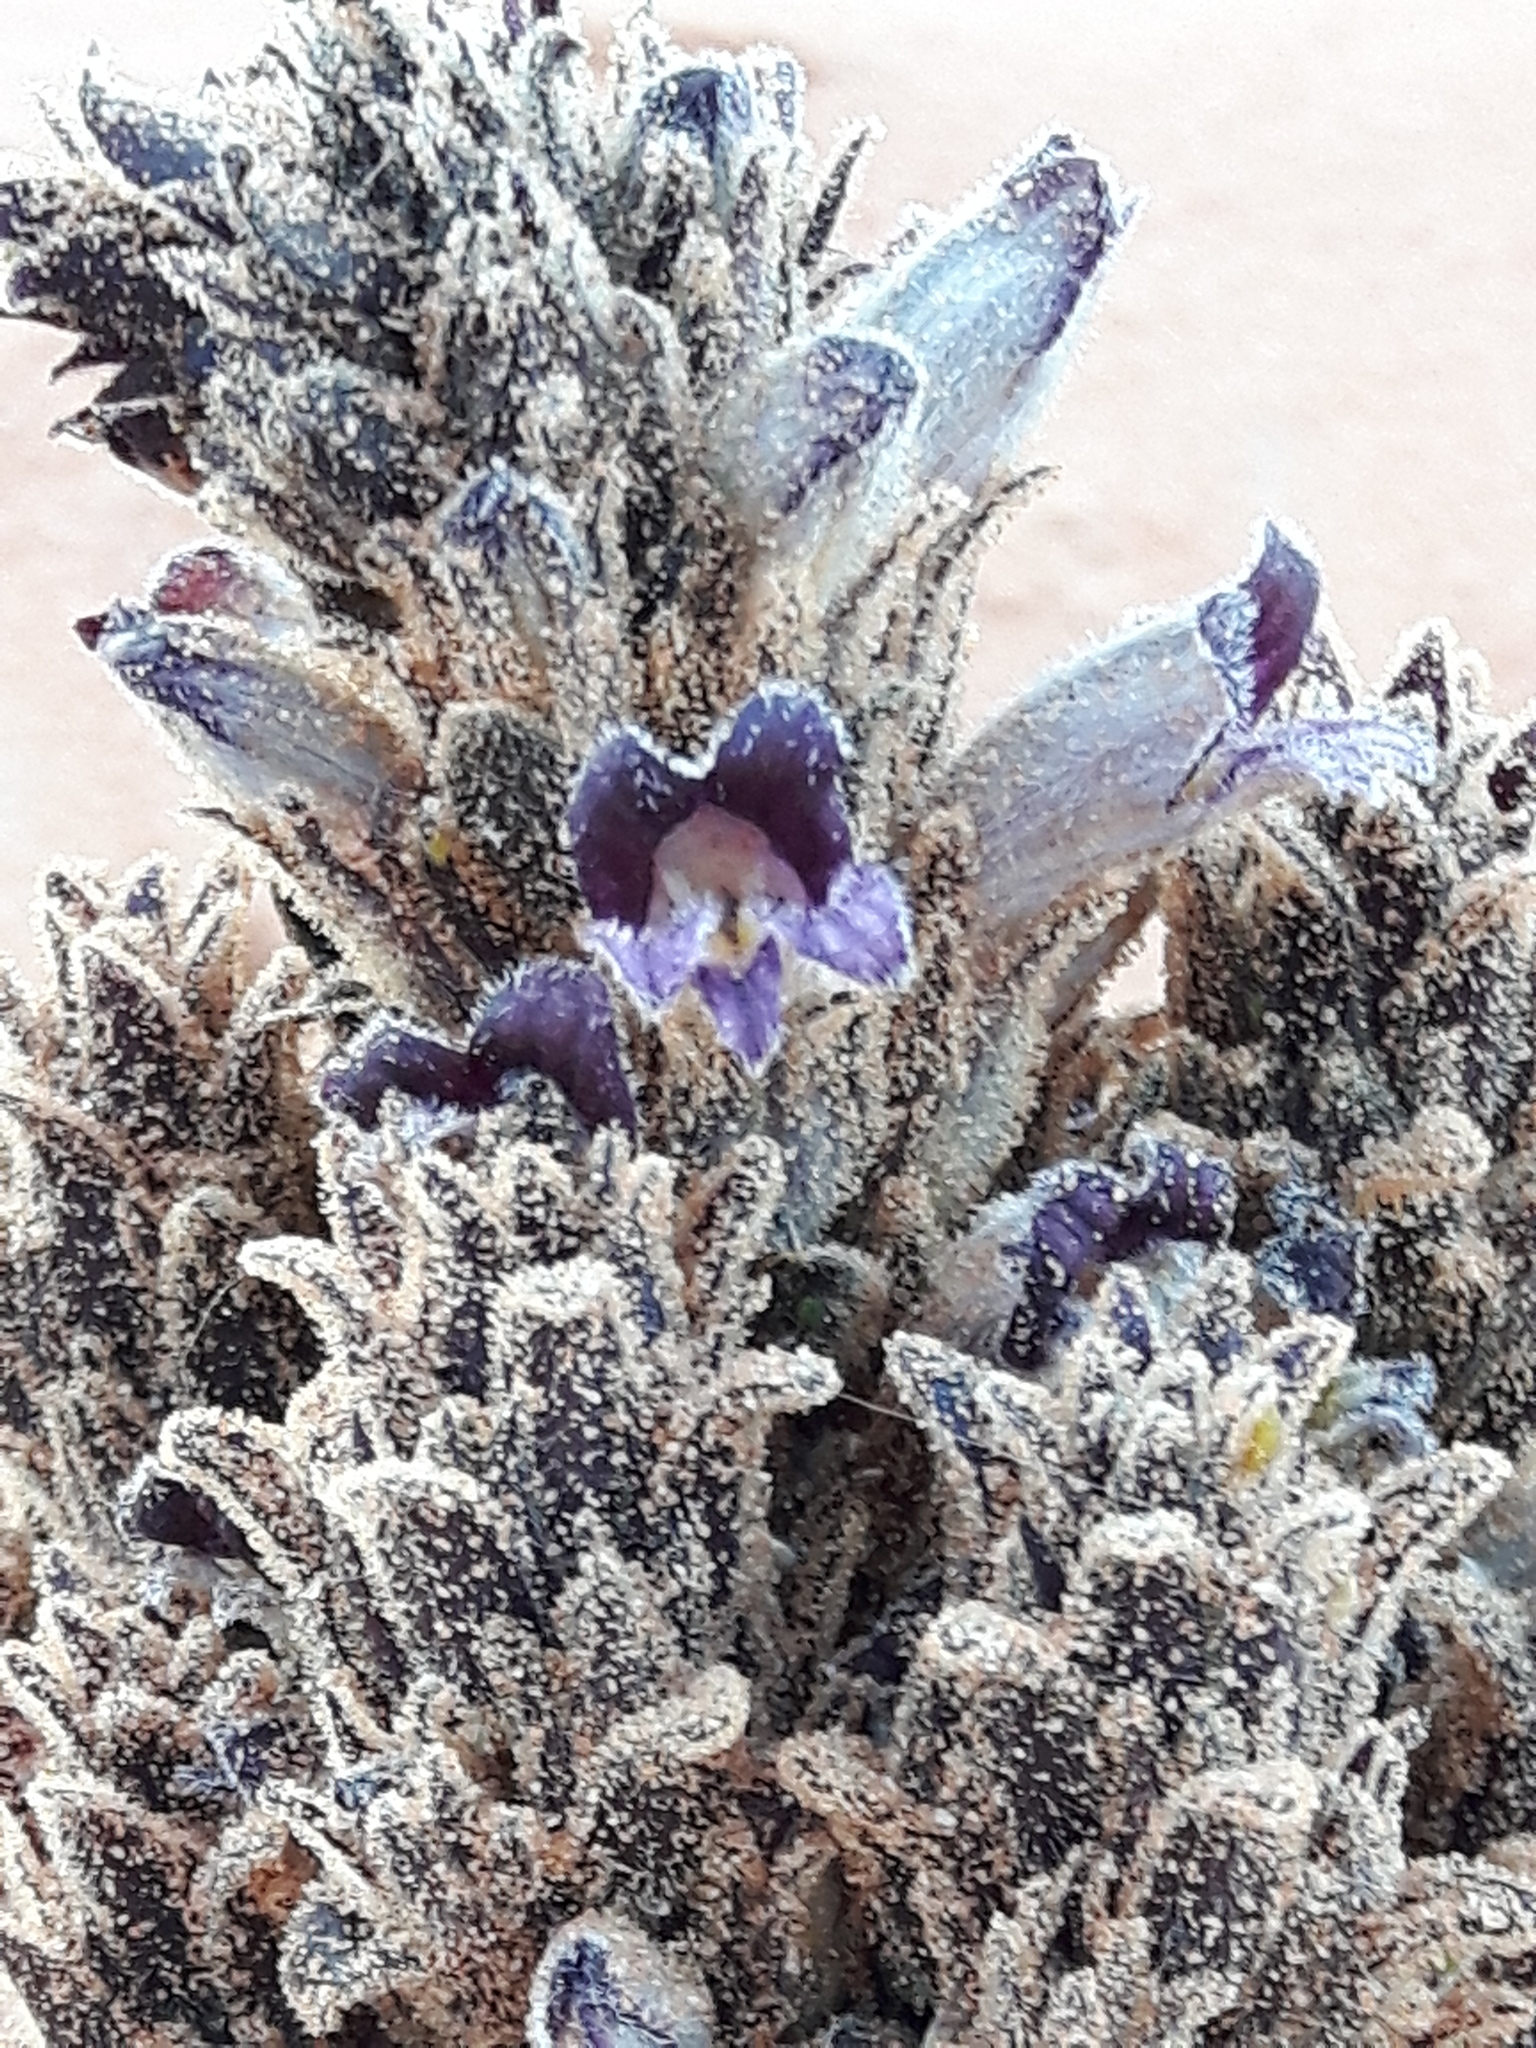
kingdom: Plantae
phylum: Tracheophyta
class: Magnoliopsida
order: Lamiales
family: Orobanchaceae
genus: Aphyllon
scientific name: Aphyllon cooperi
